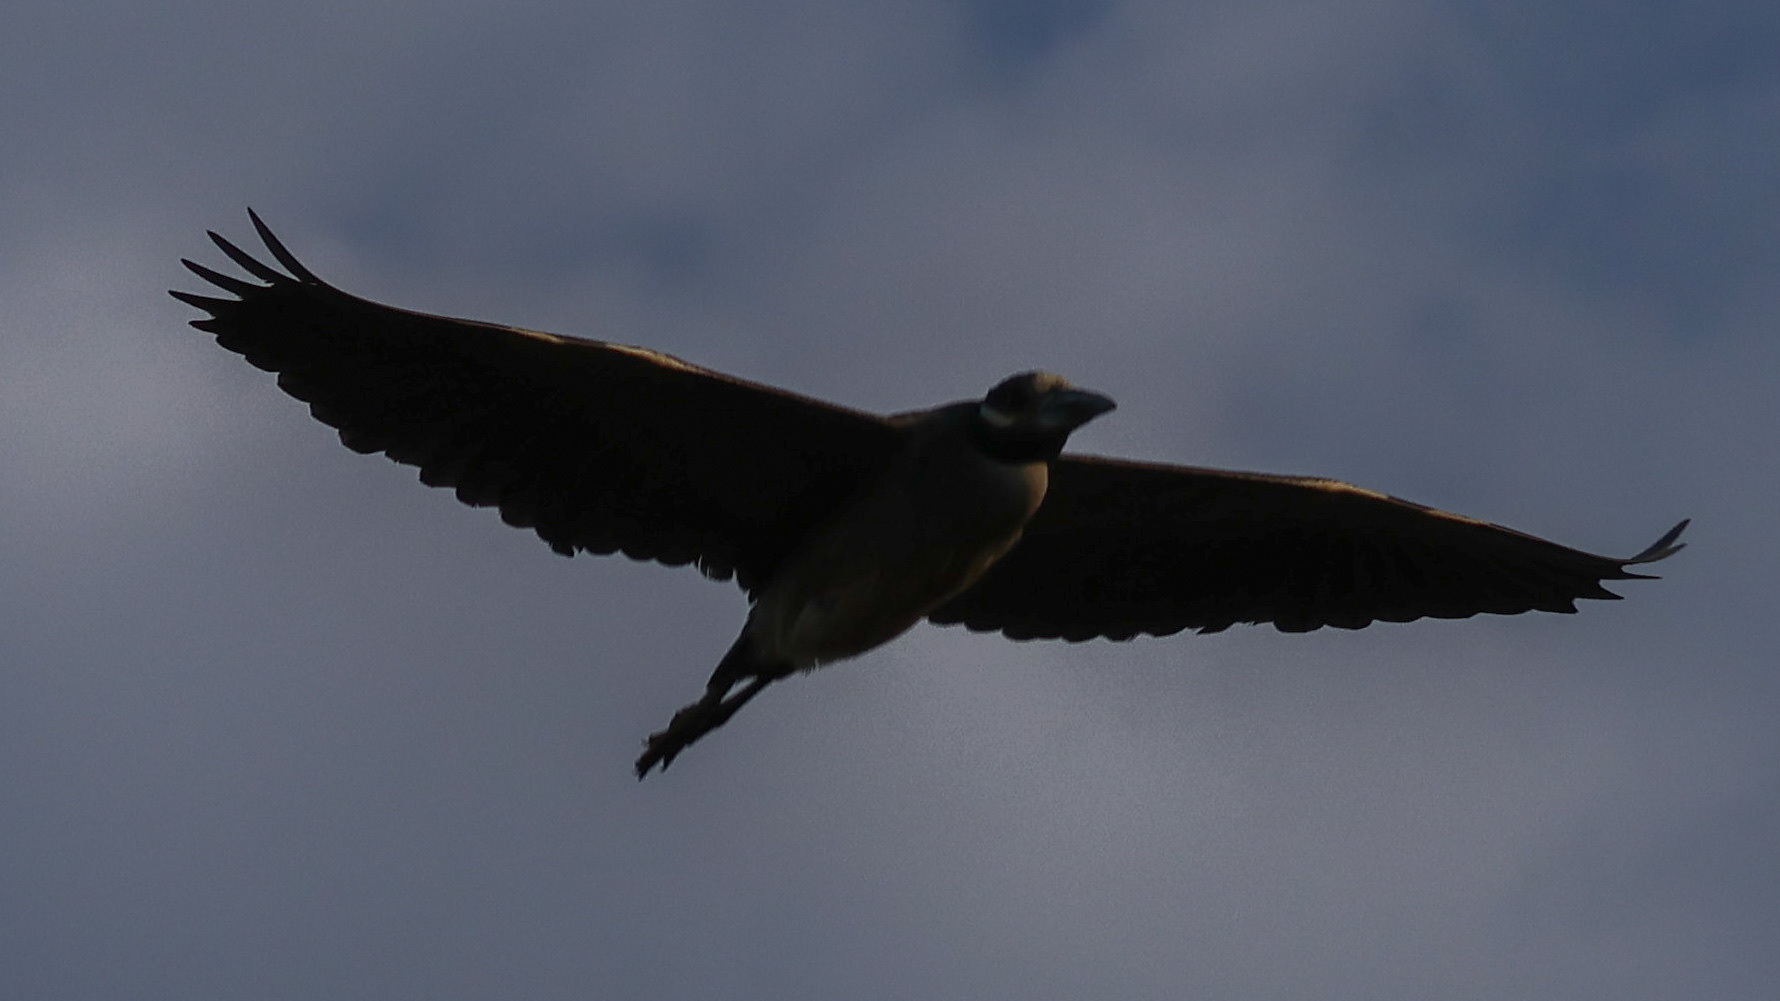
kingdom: Animalia
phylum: Chordata
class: Aves
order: Pelecaniformes
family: Ardeidae
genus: Nyctanassa
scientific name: Nyctanassa violacea
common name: Yellow-crowned night heron
